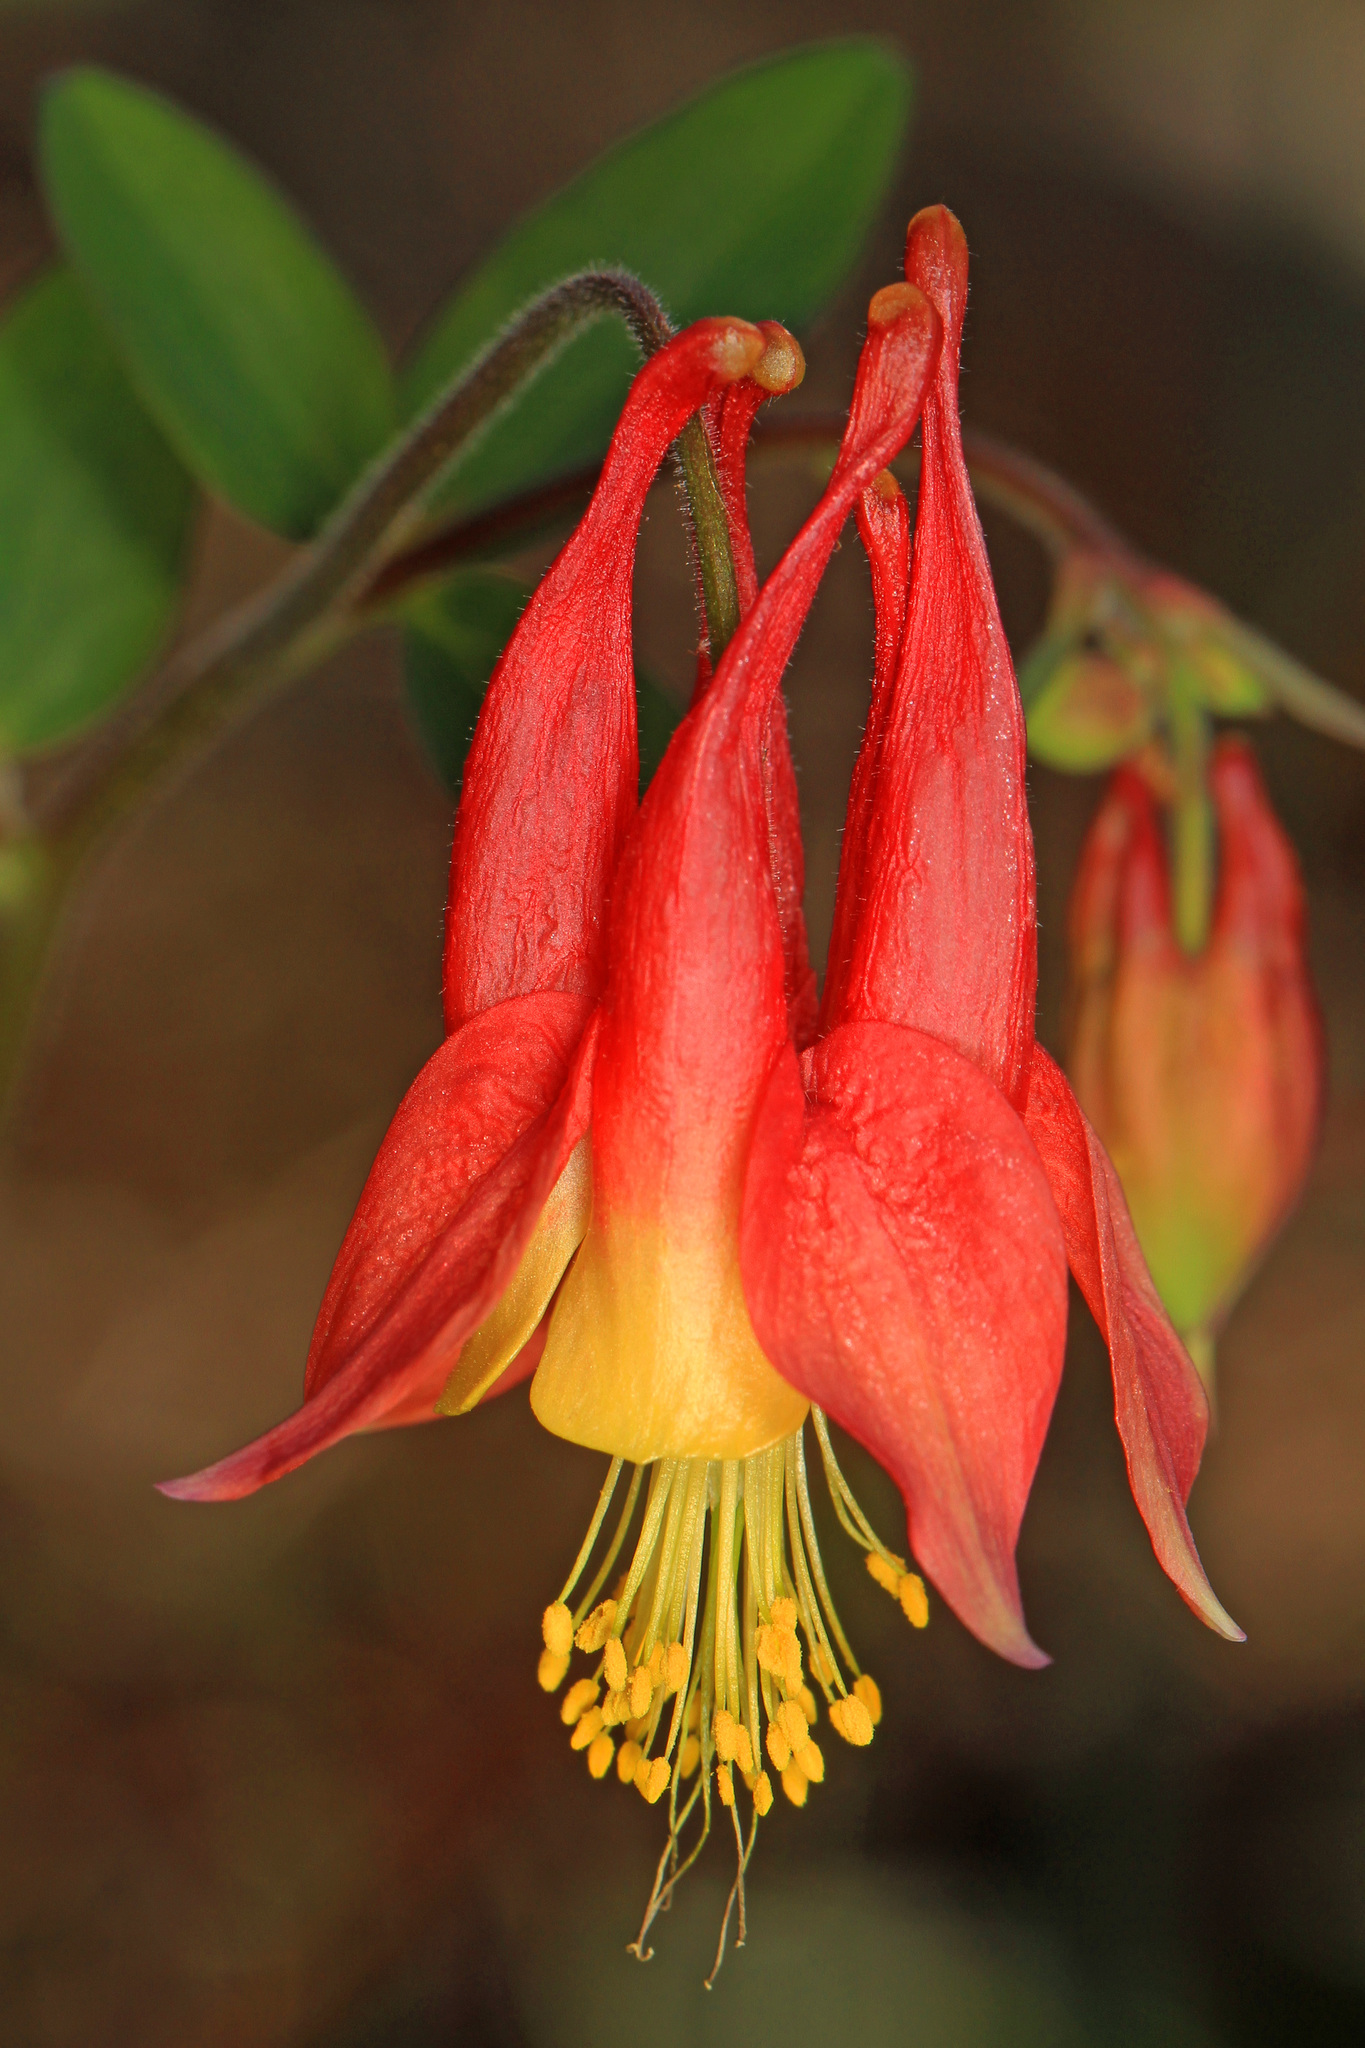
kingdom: Plantae
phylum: Tracheophyta
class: Magnoliopsida
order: Ranunculales
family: Ranunculaceae
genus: Aquilegia
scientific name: Aquilegia canadensis
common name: American columbine
